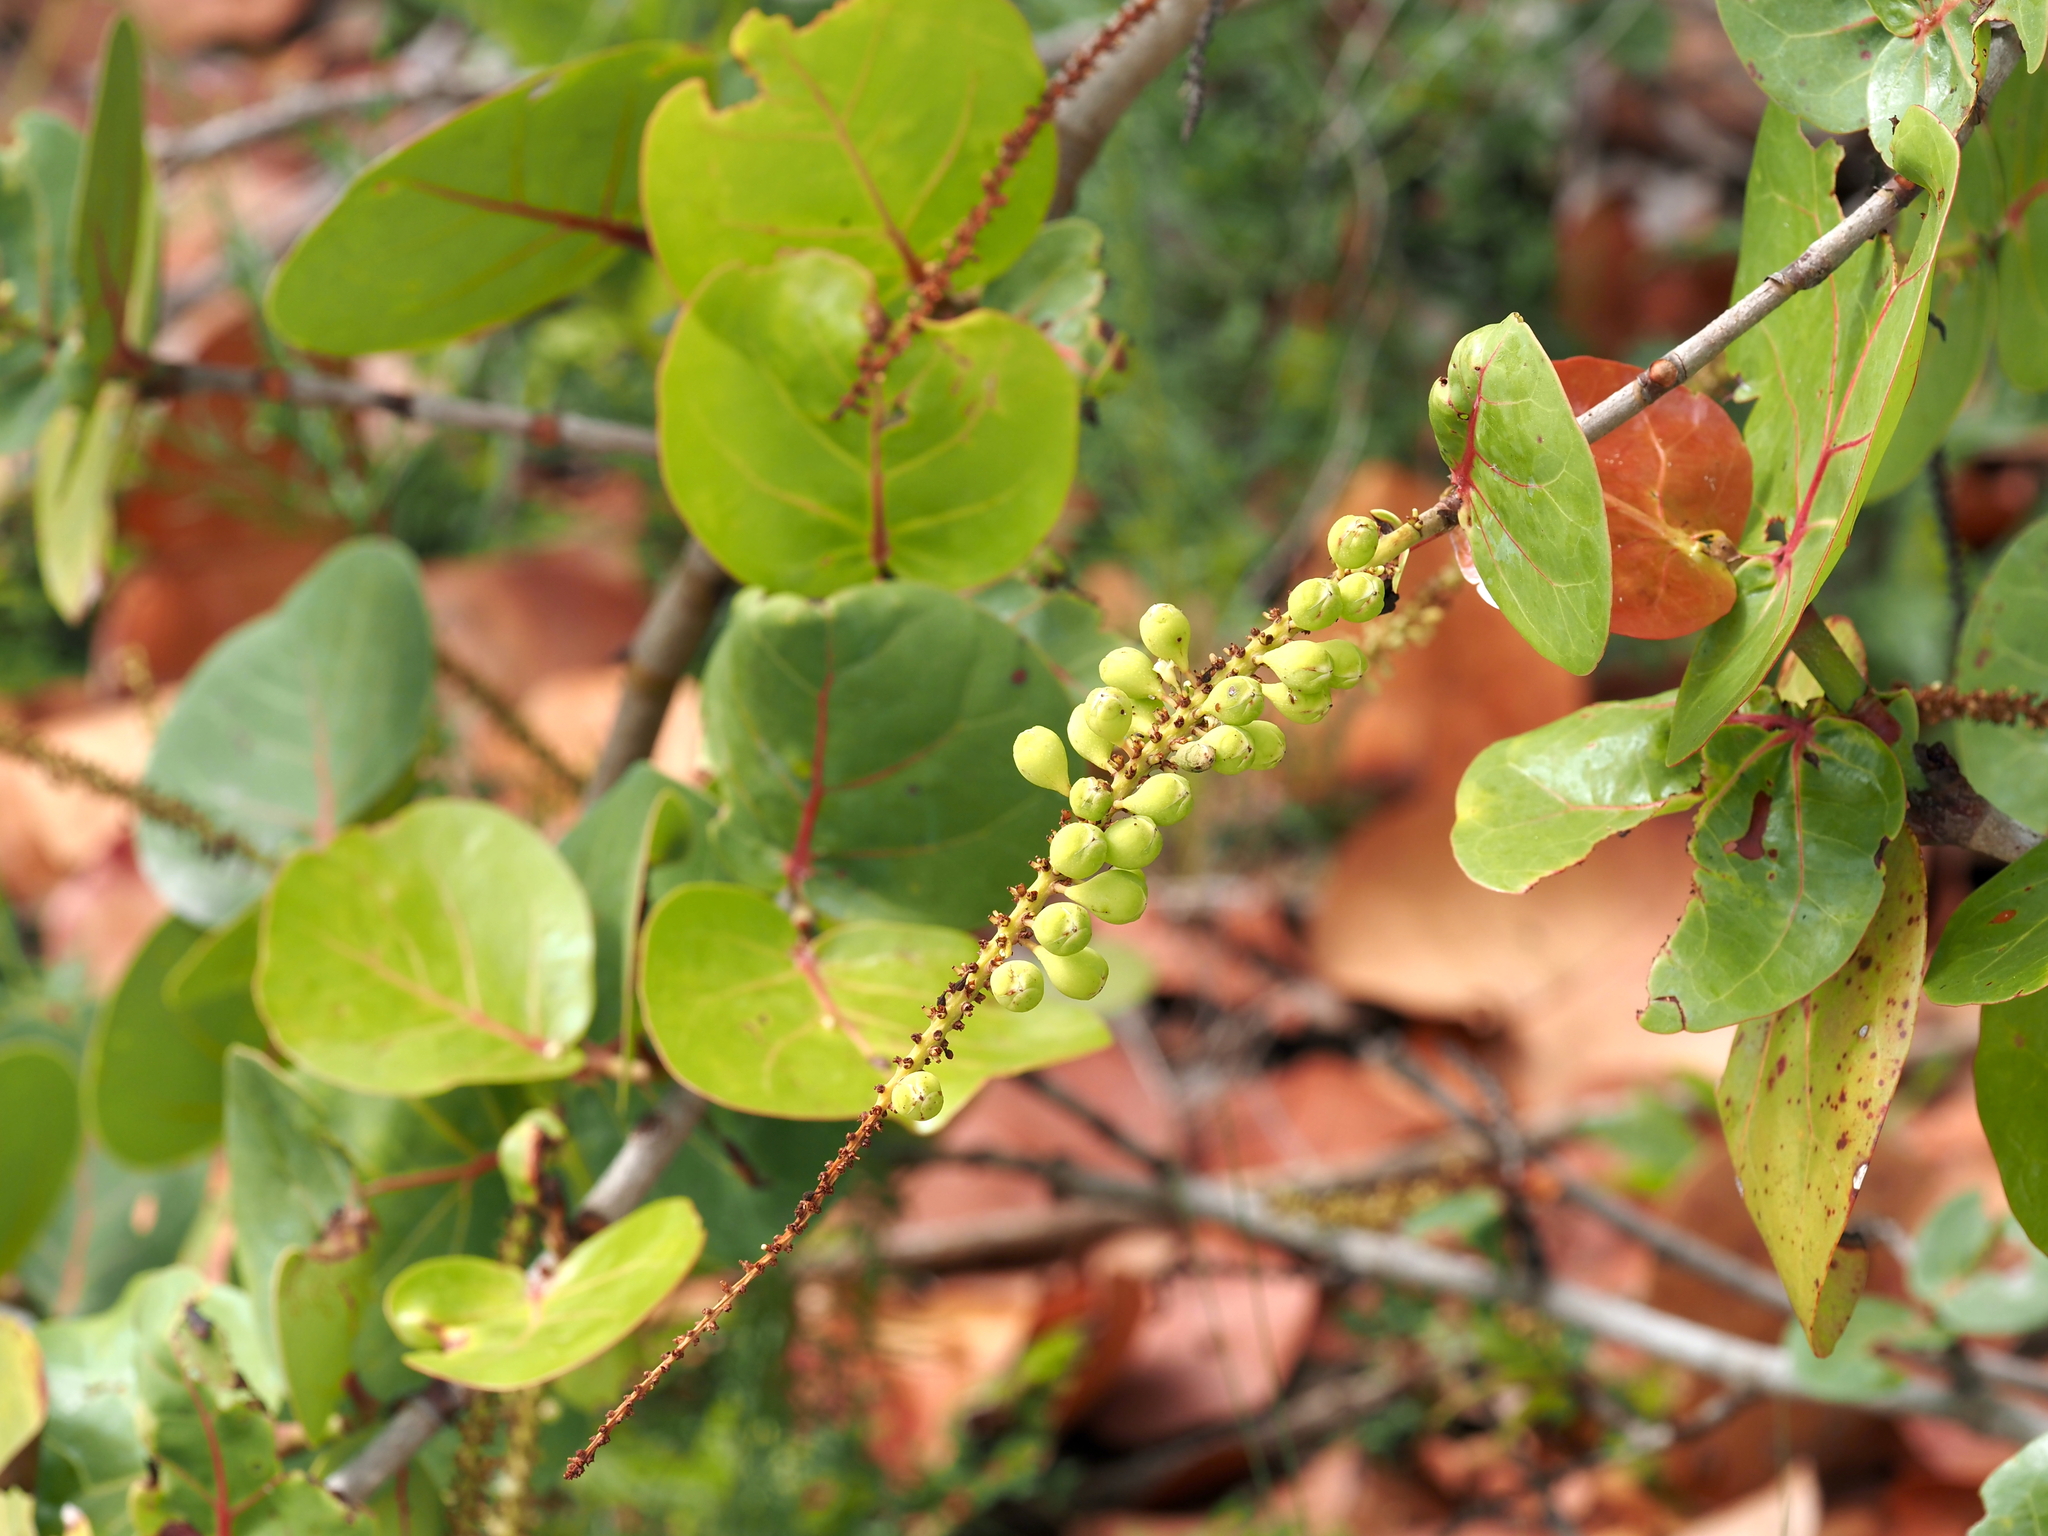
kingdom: Plantae
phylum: Tracheophyta
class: Magnoliopsida
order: Caryophyllales
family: Polygonaceae
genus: Coccoloba
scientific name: Coccoloba uvifera
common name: Seagrape
